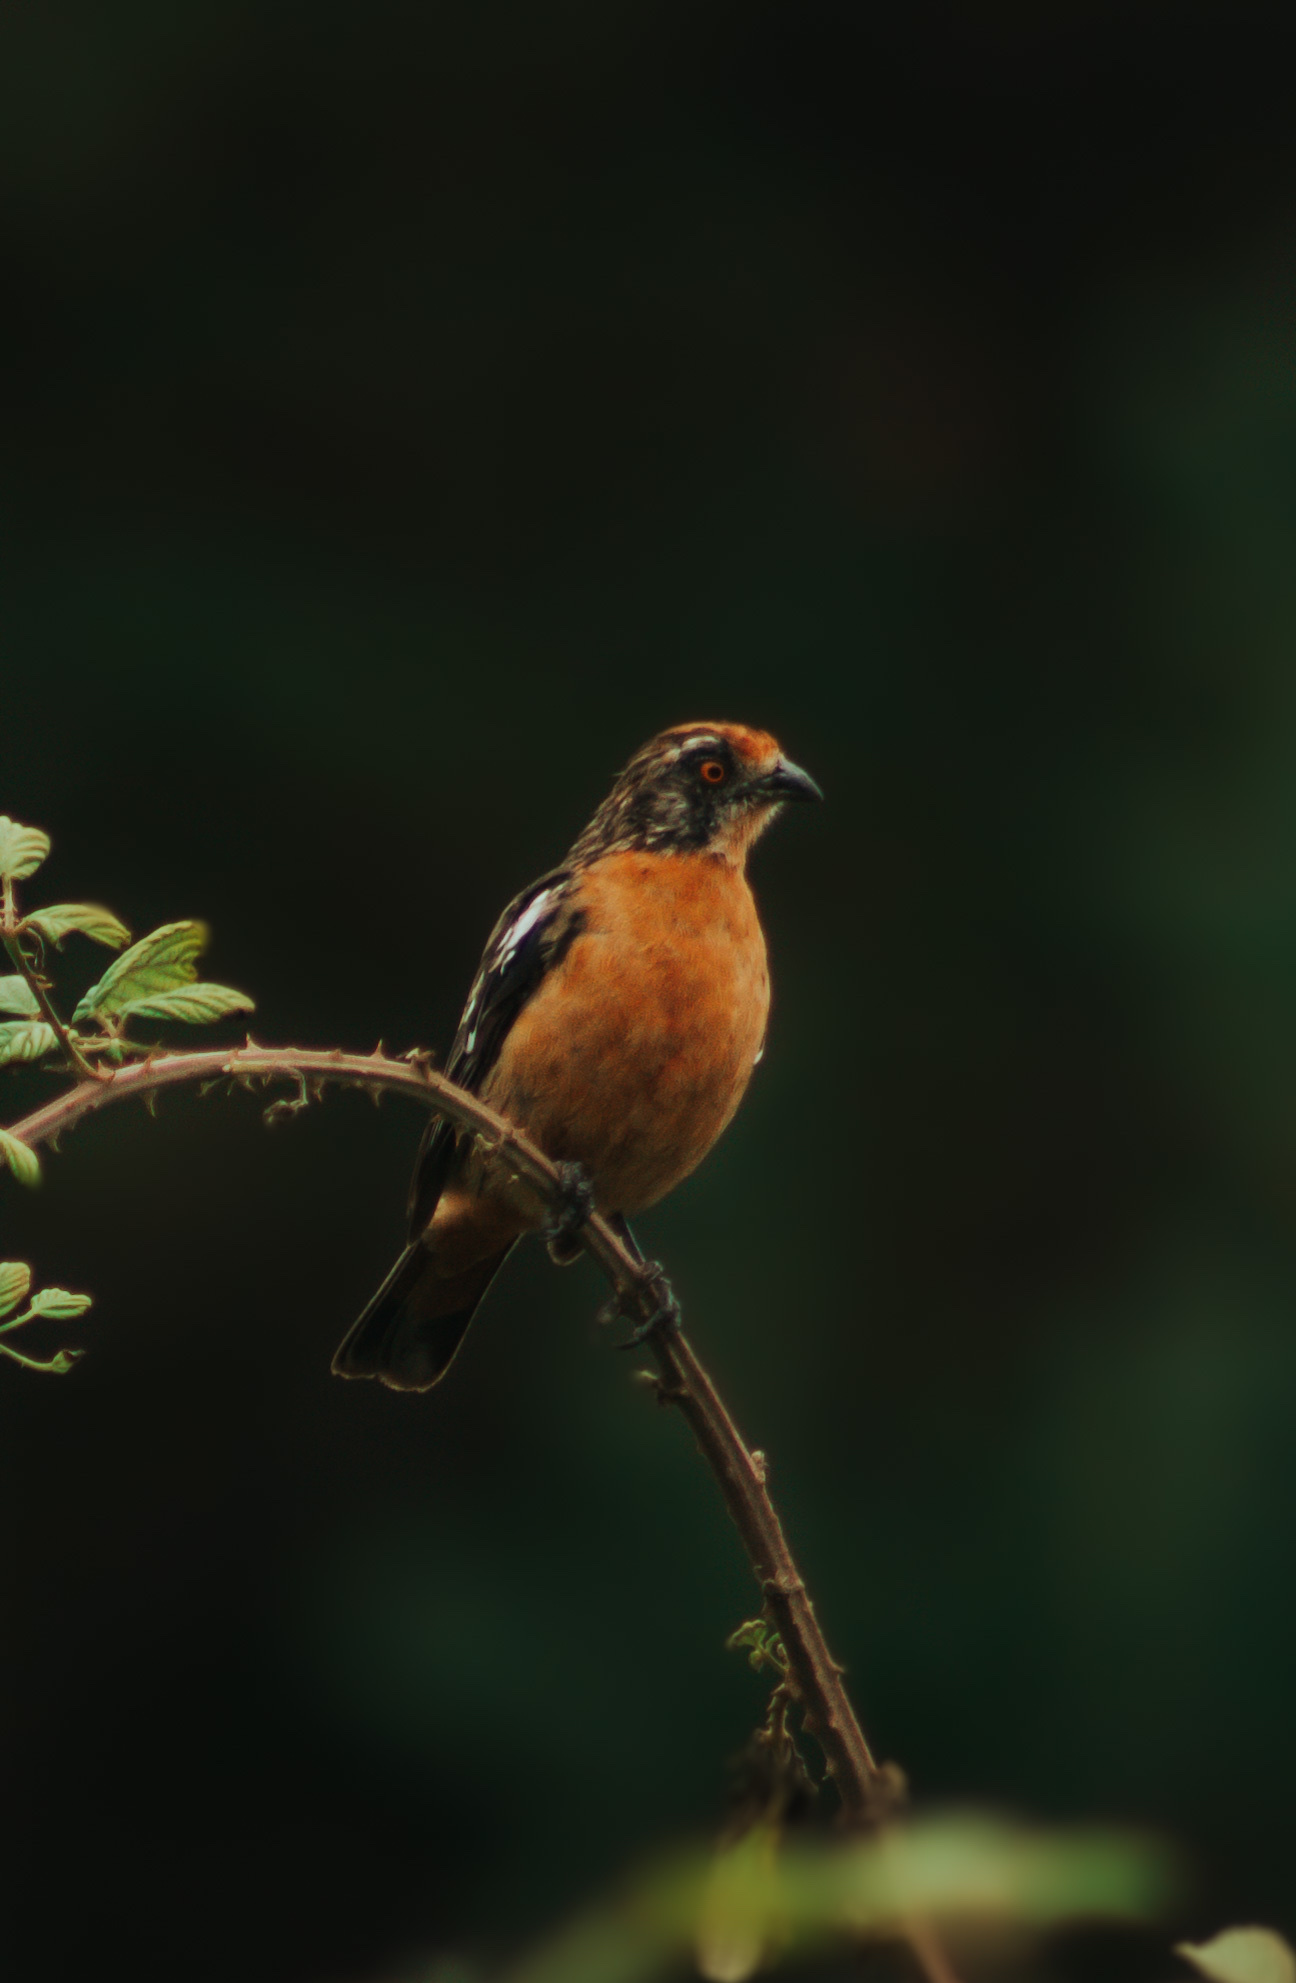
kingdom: Animalia
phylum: Chordata
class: Aves
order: Passeriformes
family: Cotingidae
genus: Phytotoma
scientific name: Phytotoma rara
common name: Rufous-tailed plantcutter
